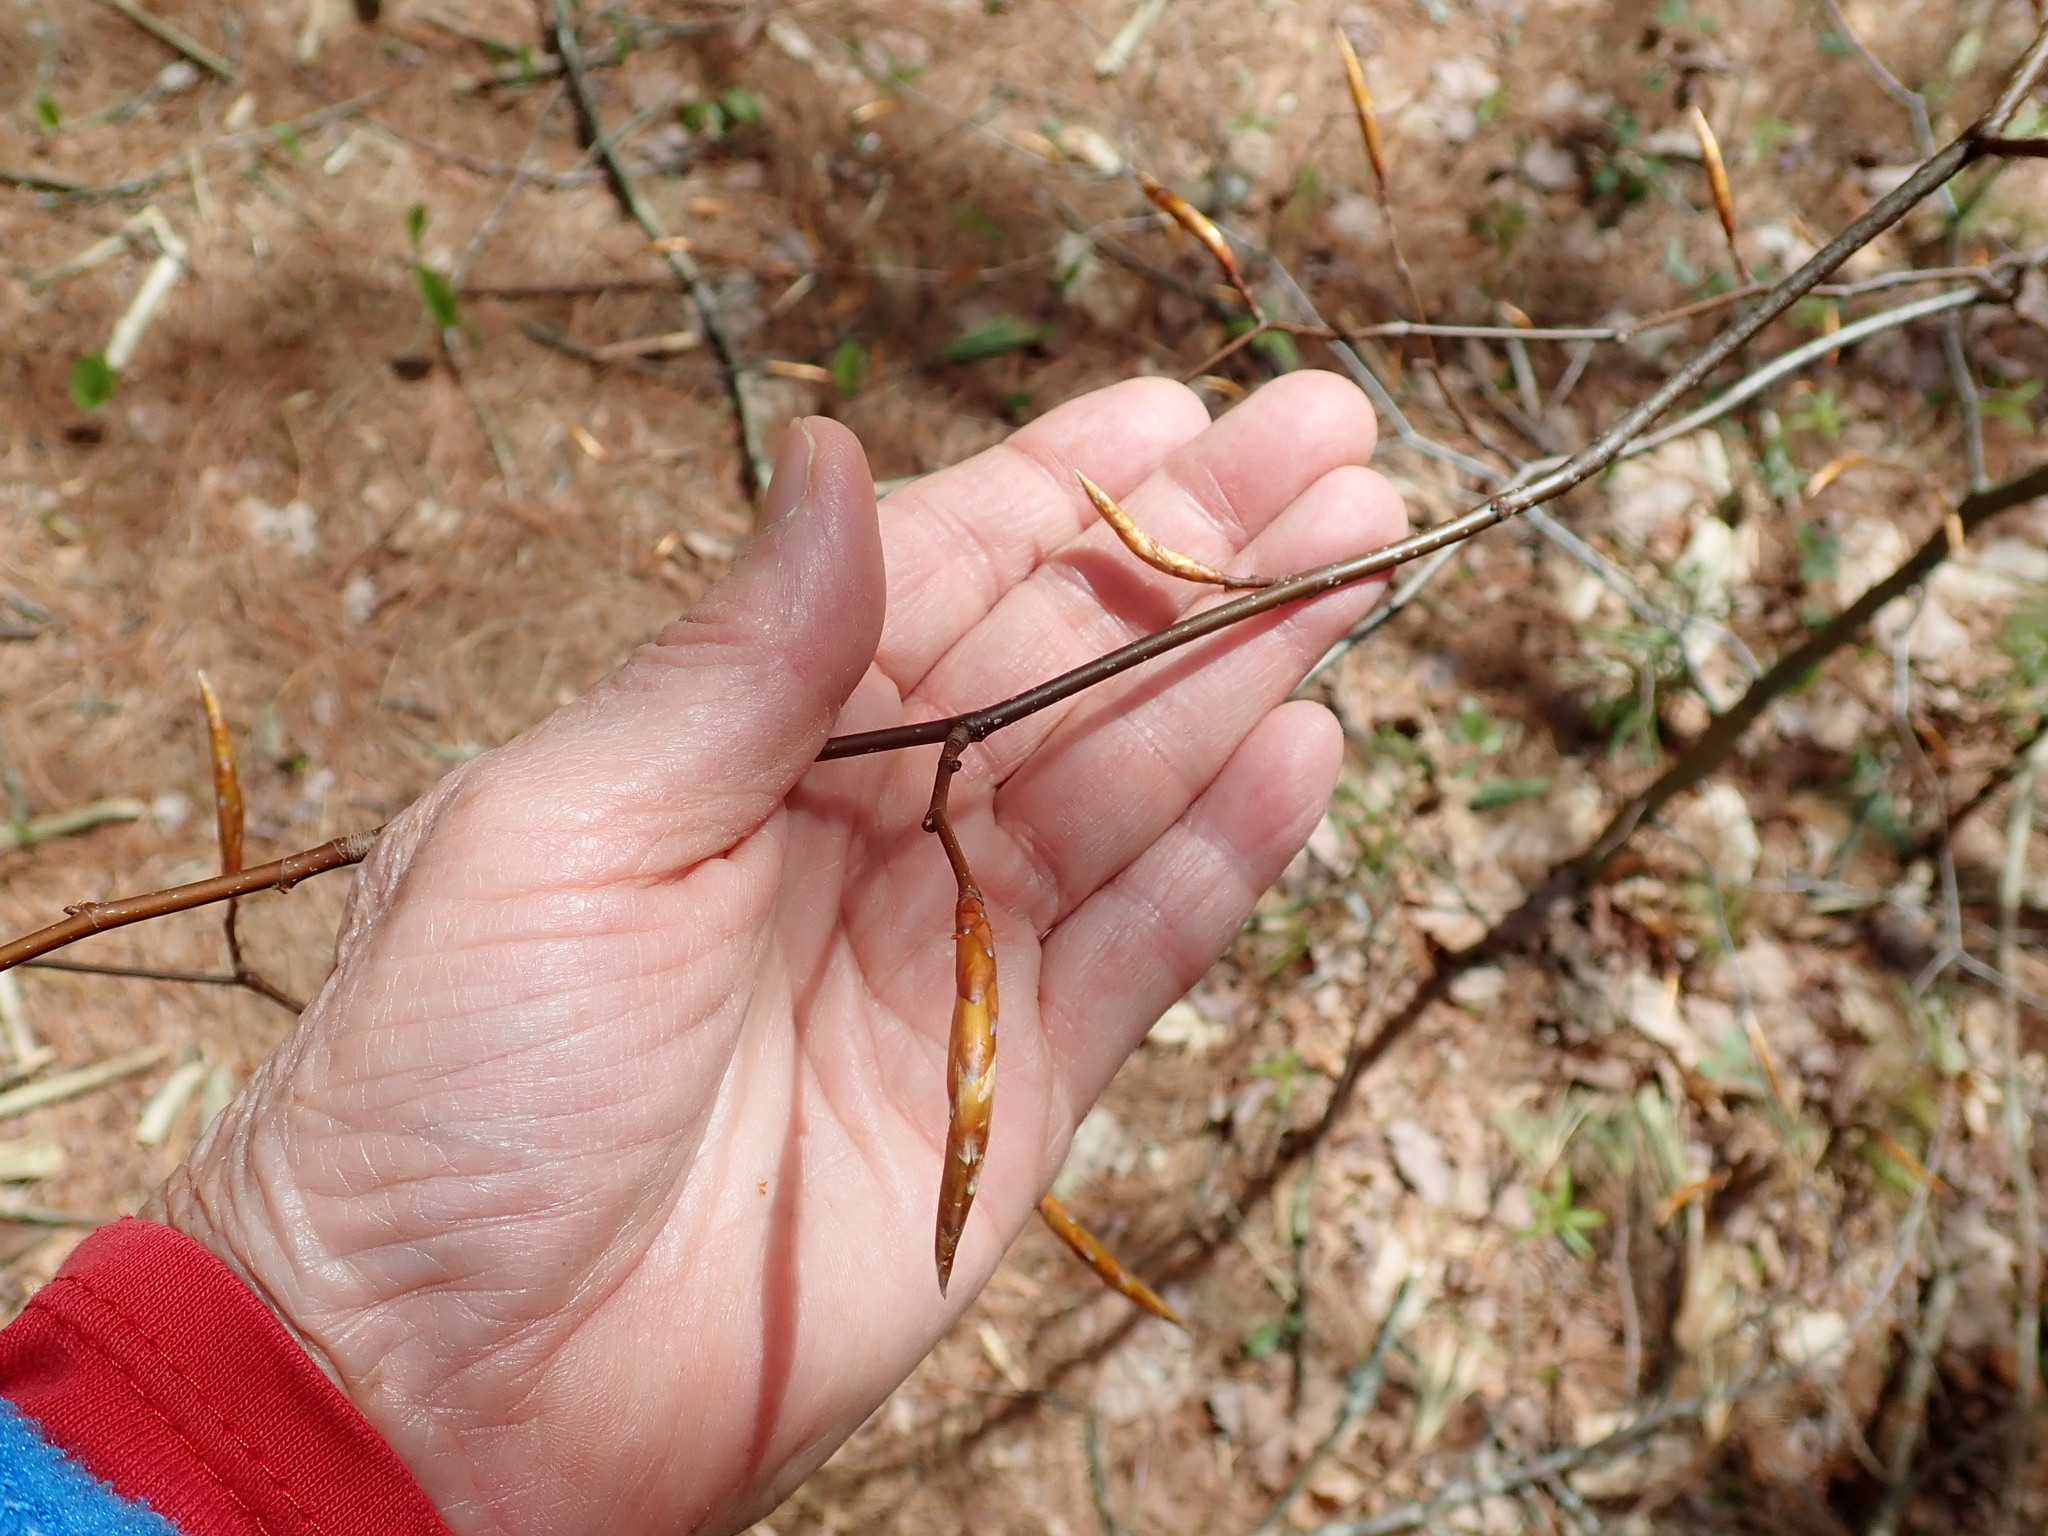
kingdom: Plantae
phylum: Tracheophyta
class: Magnoliopsida
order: Fagales
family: Fagaceae
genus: Fagus
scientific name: Fagus grandifolia
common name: American beech
